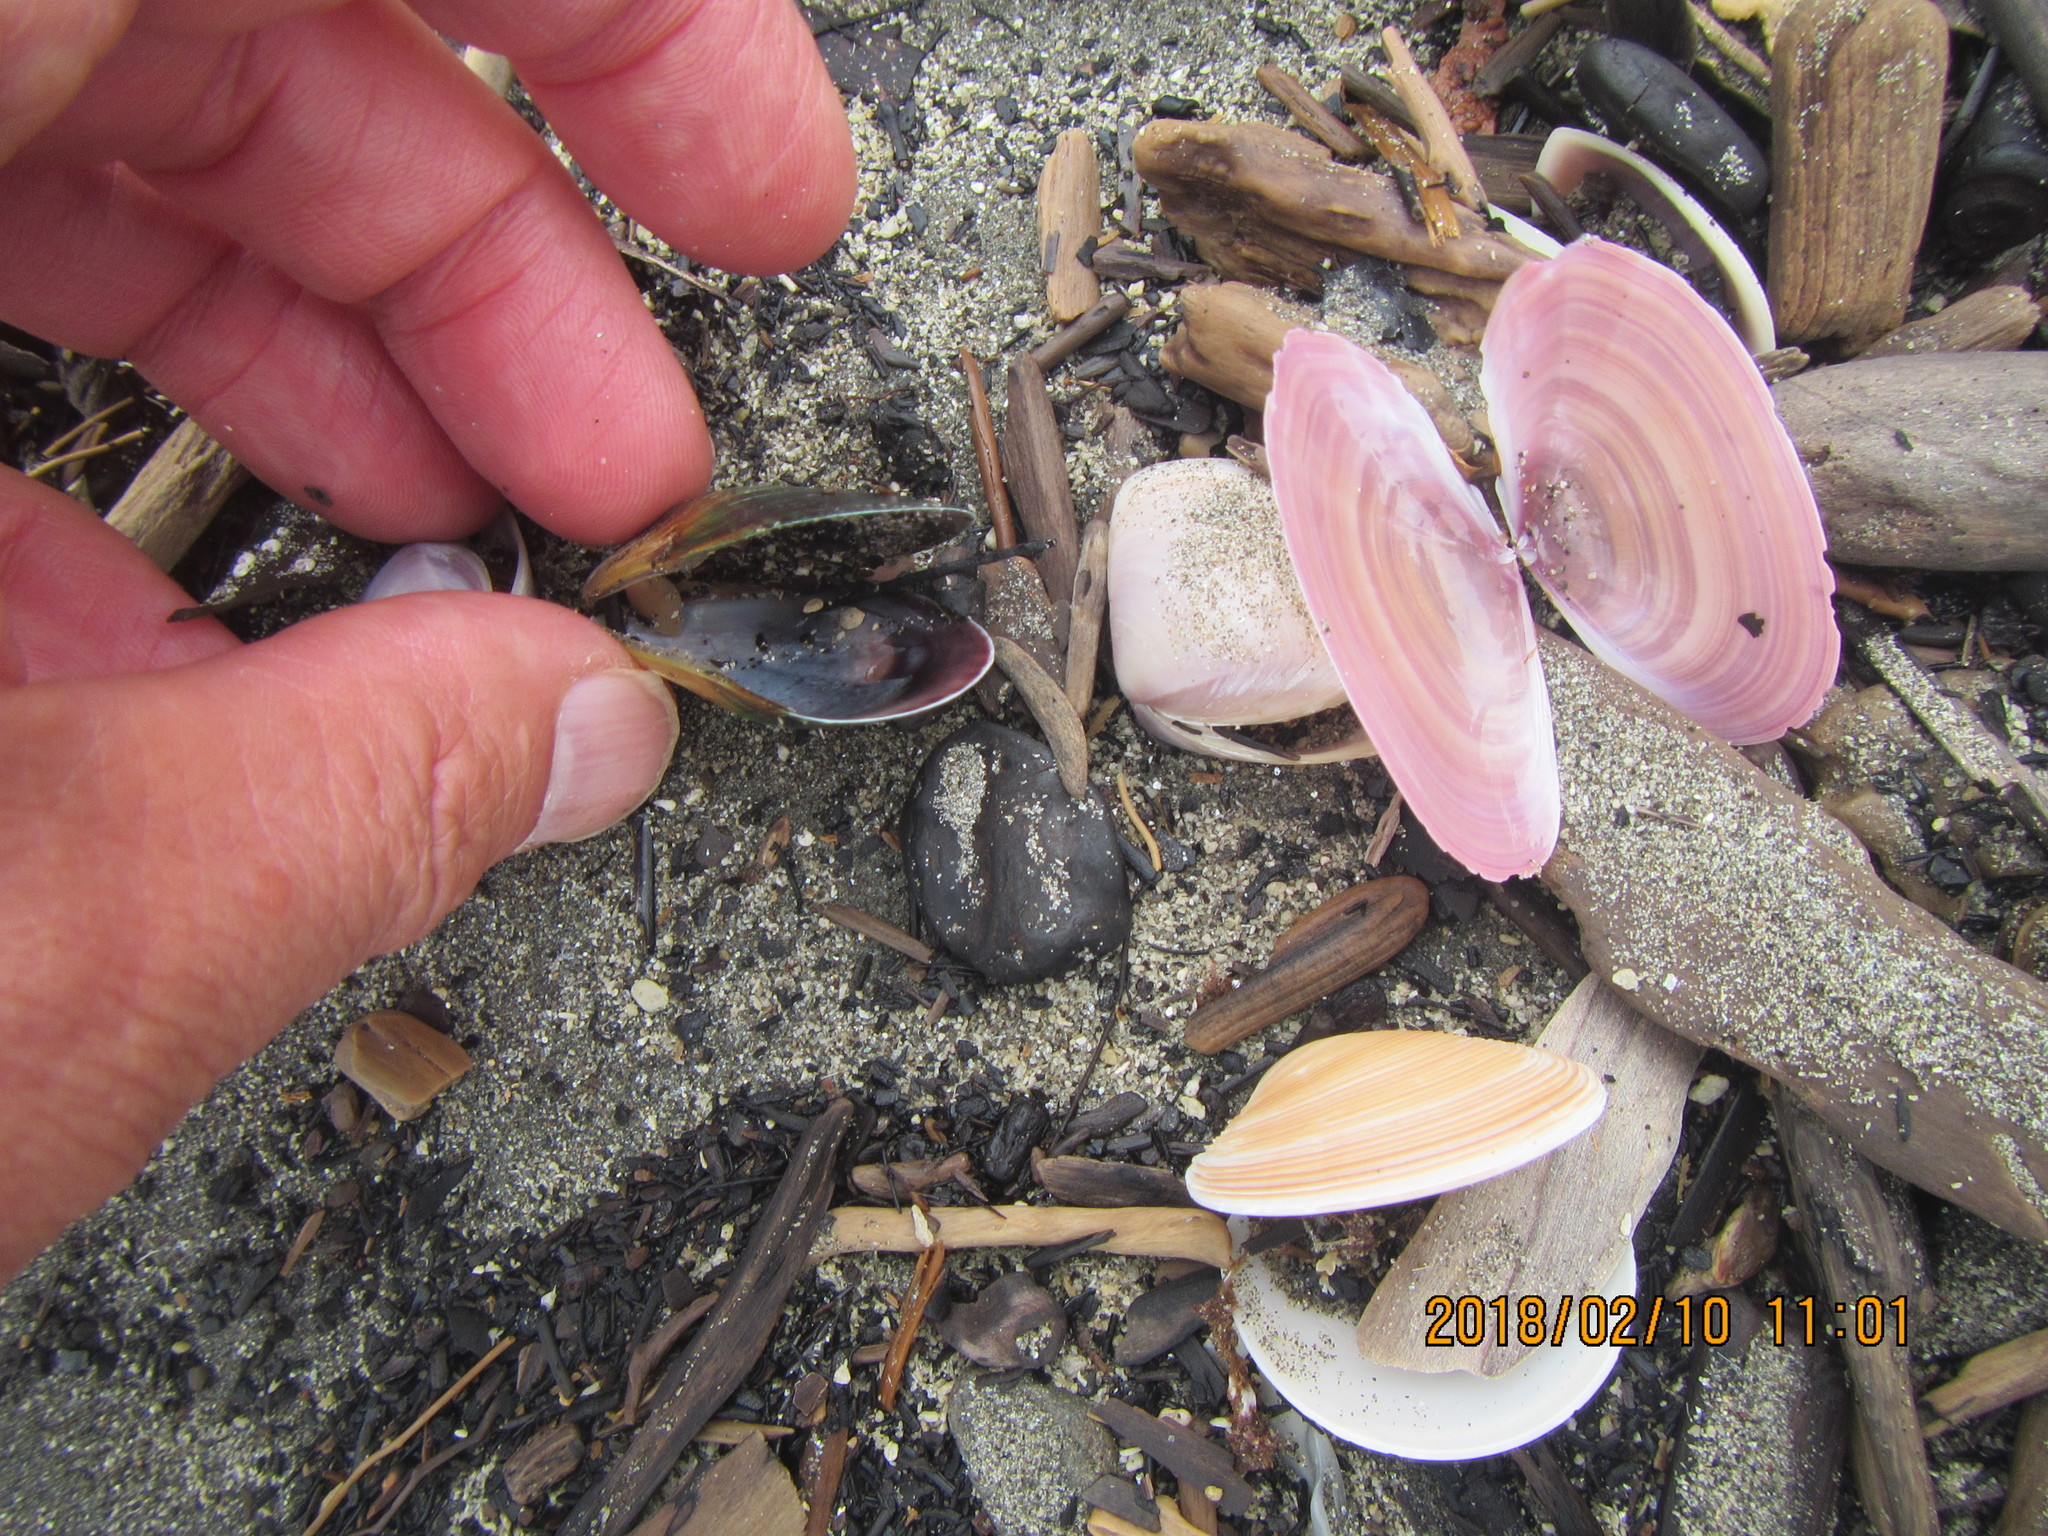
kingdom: Animalia
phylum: Mollusca
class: Bivalvia
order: Mytilida
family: Mytilidae
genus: Perna
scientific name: Perna canaliculus
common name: New zealand greenshelltm
